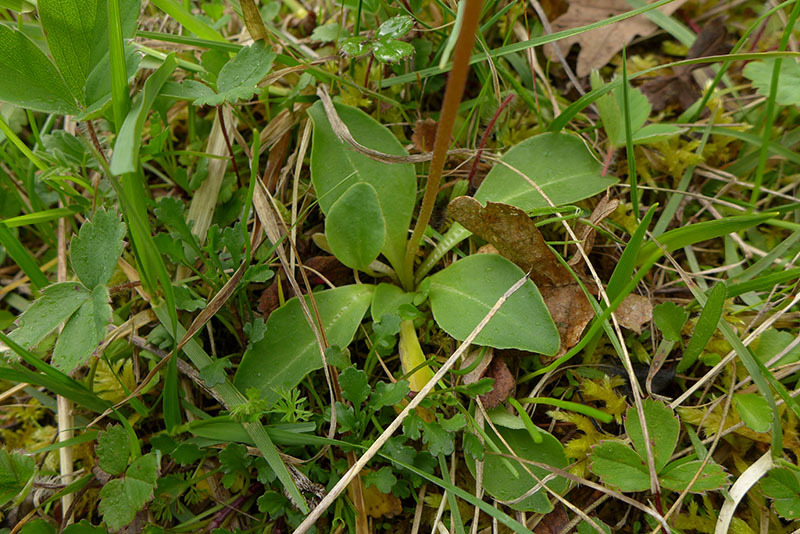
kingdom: Plantae
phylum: Tracheophyta
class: Magnoliopsida
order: Ericales
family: Primulaceae
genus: Dodecatheon
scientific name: Dodecatheon hendersonii
